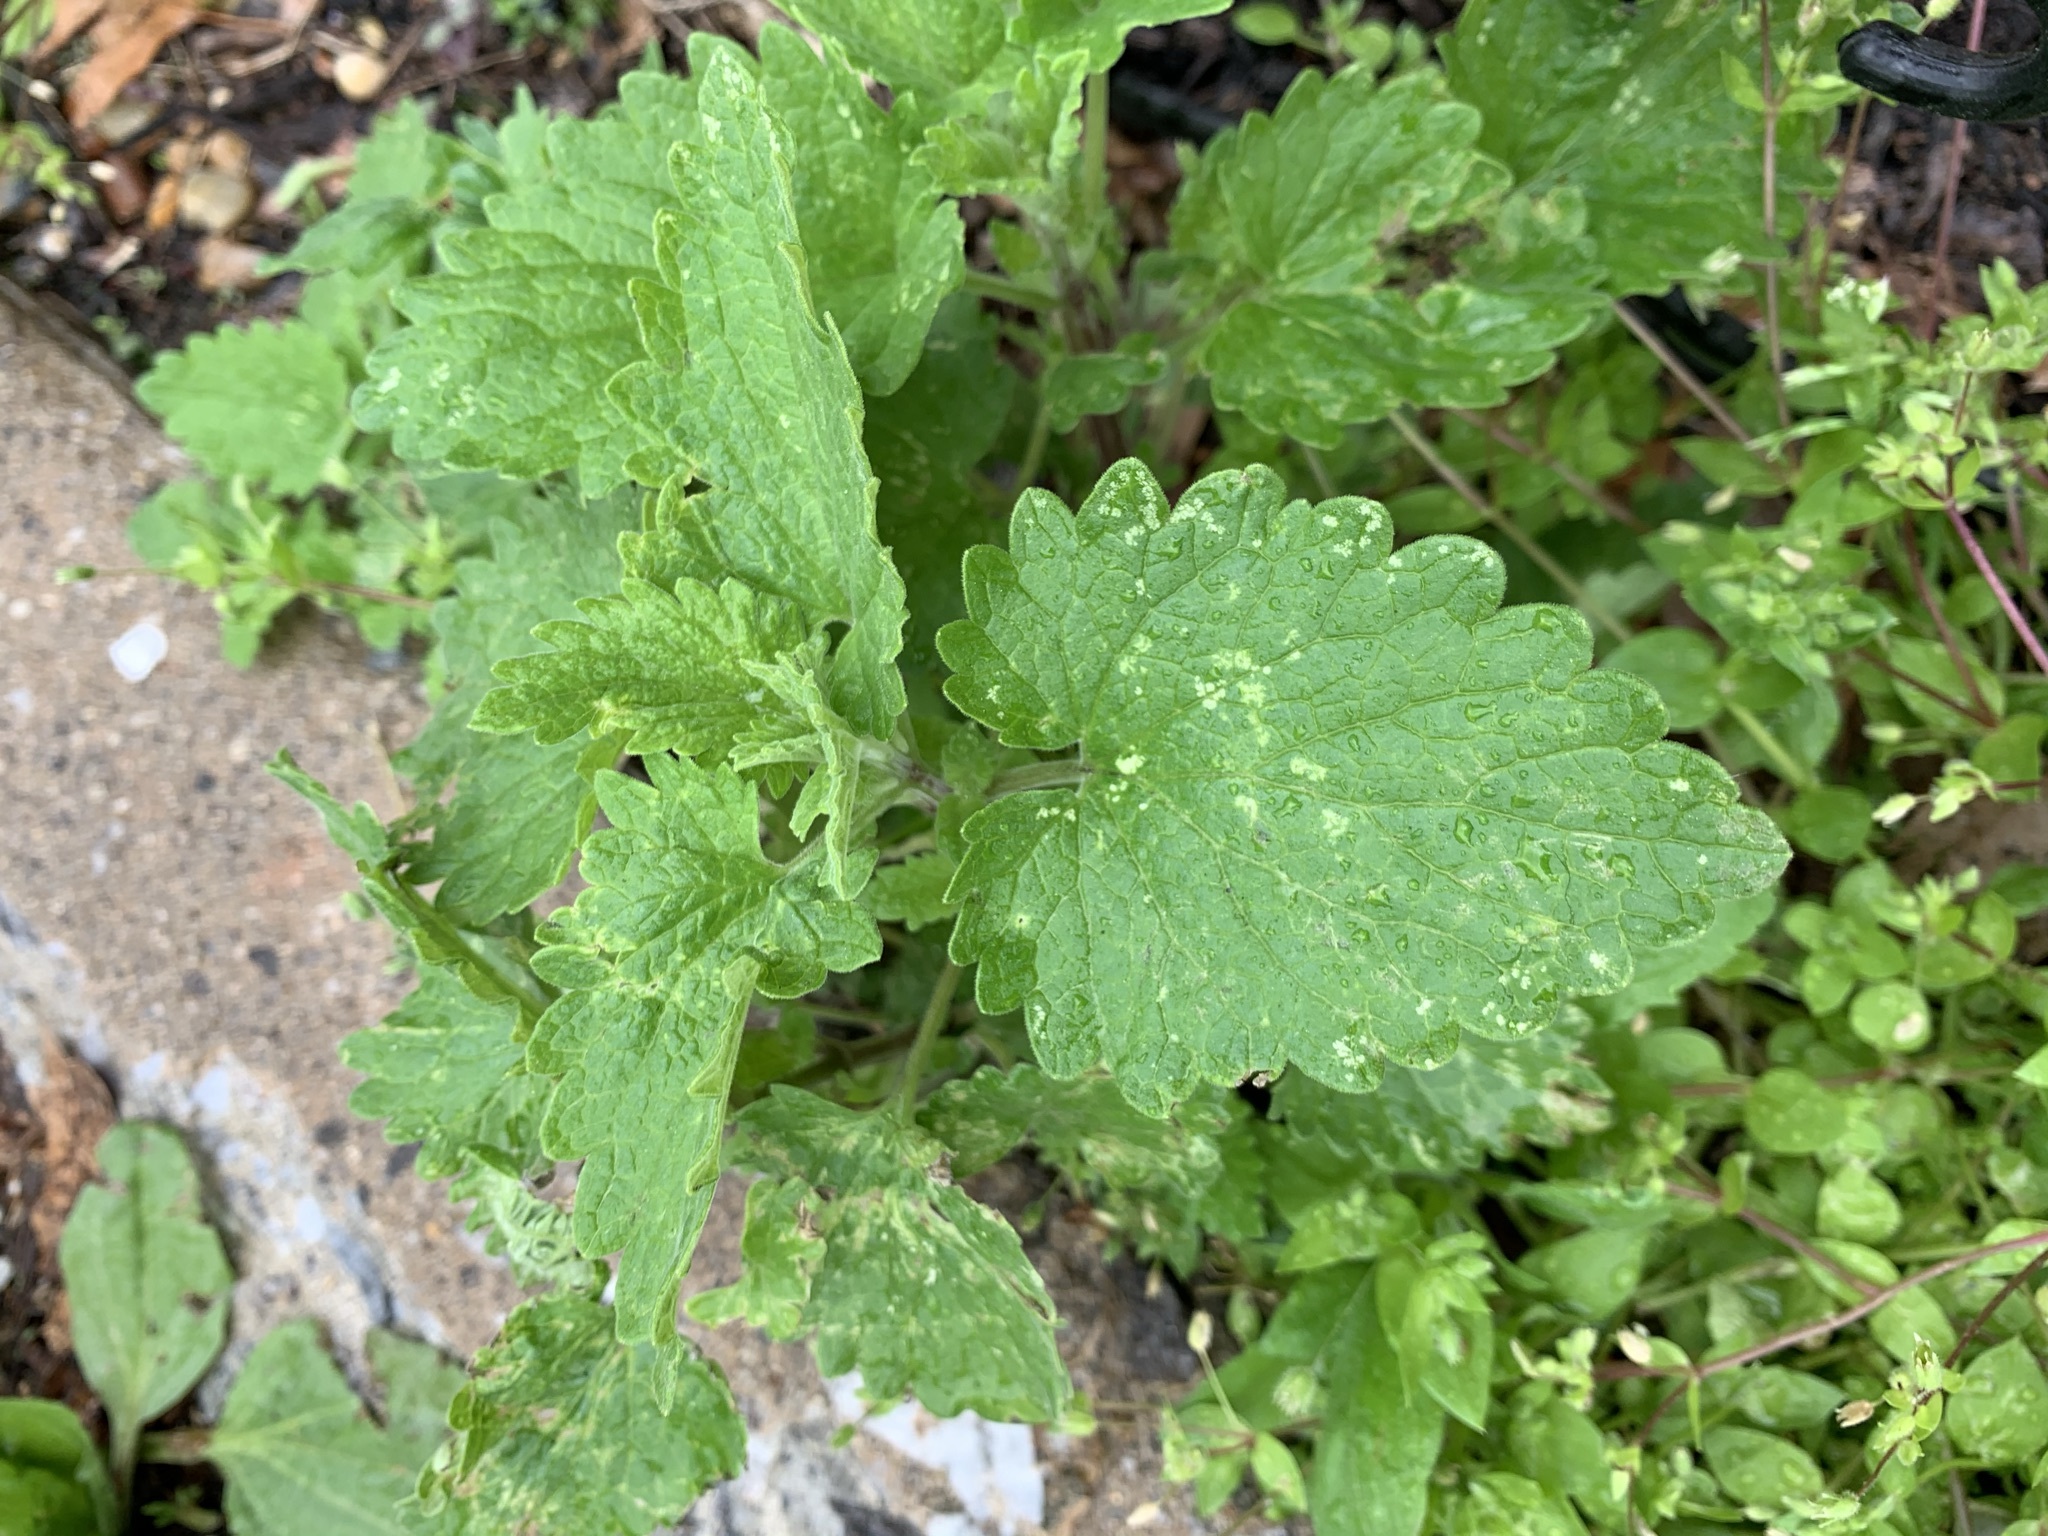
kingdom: Plantae
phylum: Tracheophyta
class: Magnoliopsida
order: Lamiales
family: Lamiaceae
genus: Nepeta
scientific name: Nepeta cataria
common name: Catnip
